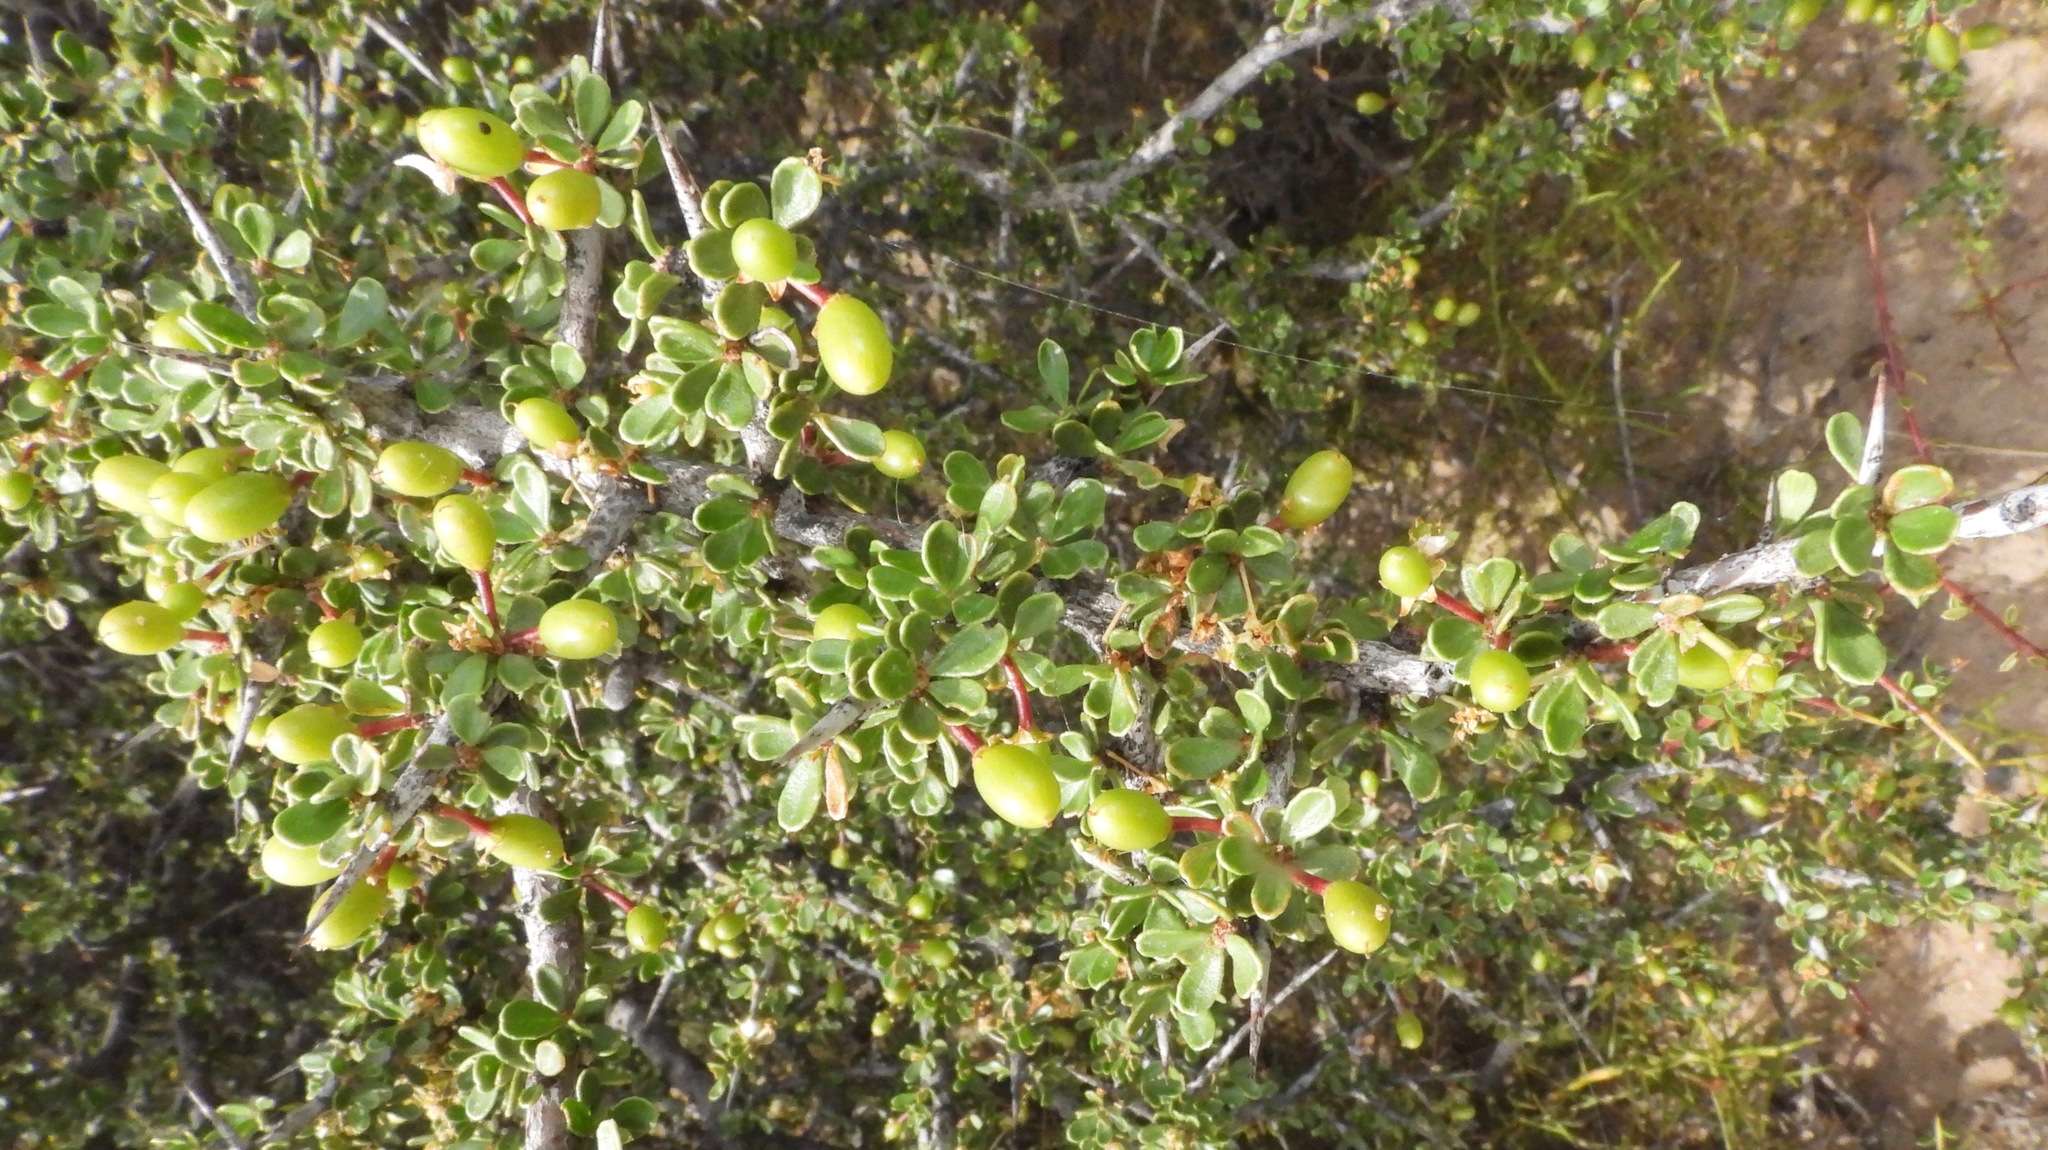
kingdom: Plantae
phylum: Tracheophyta
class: Magnoliopsida
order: Rosales
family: Rhamnaceae
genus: Condalia
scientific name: Condalia microphylla
